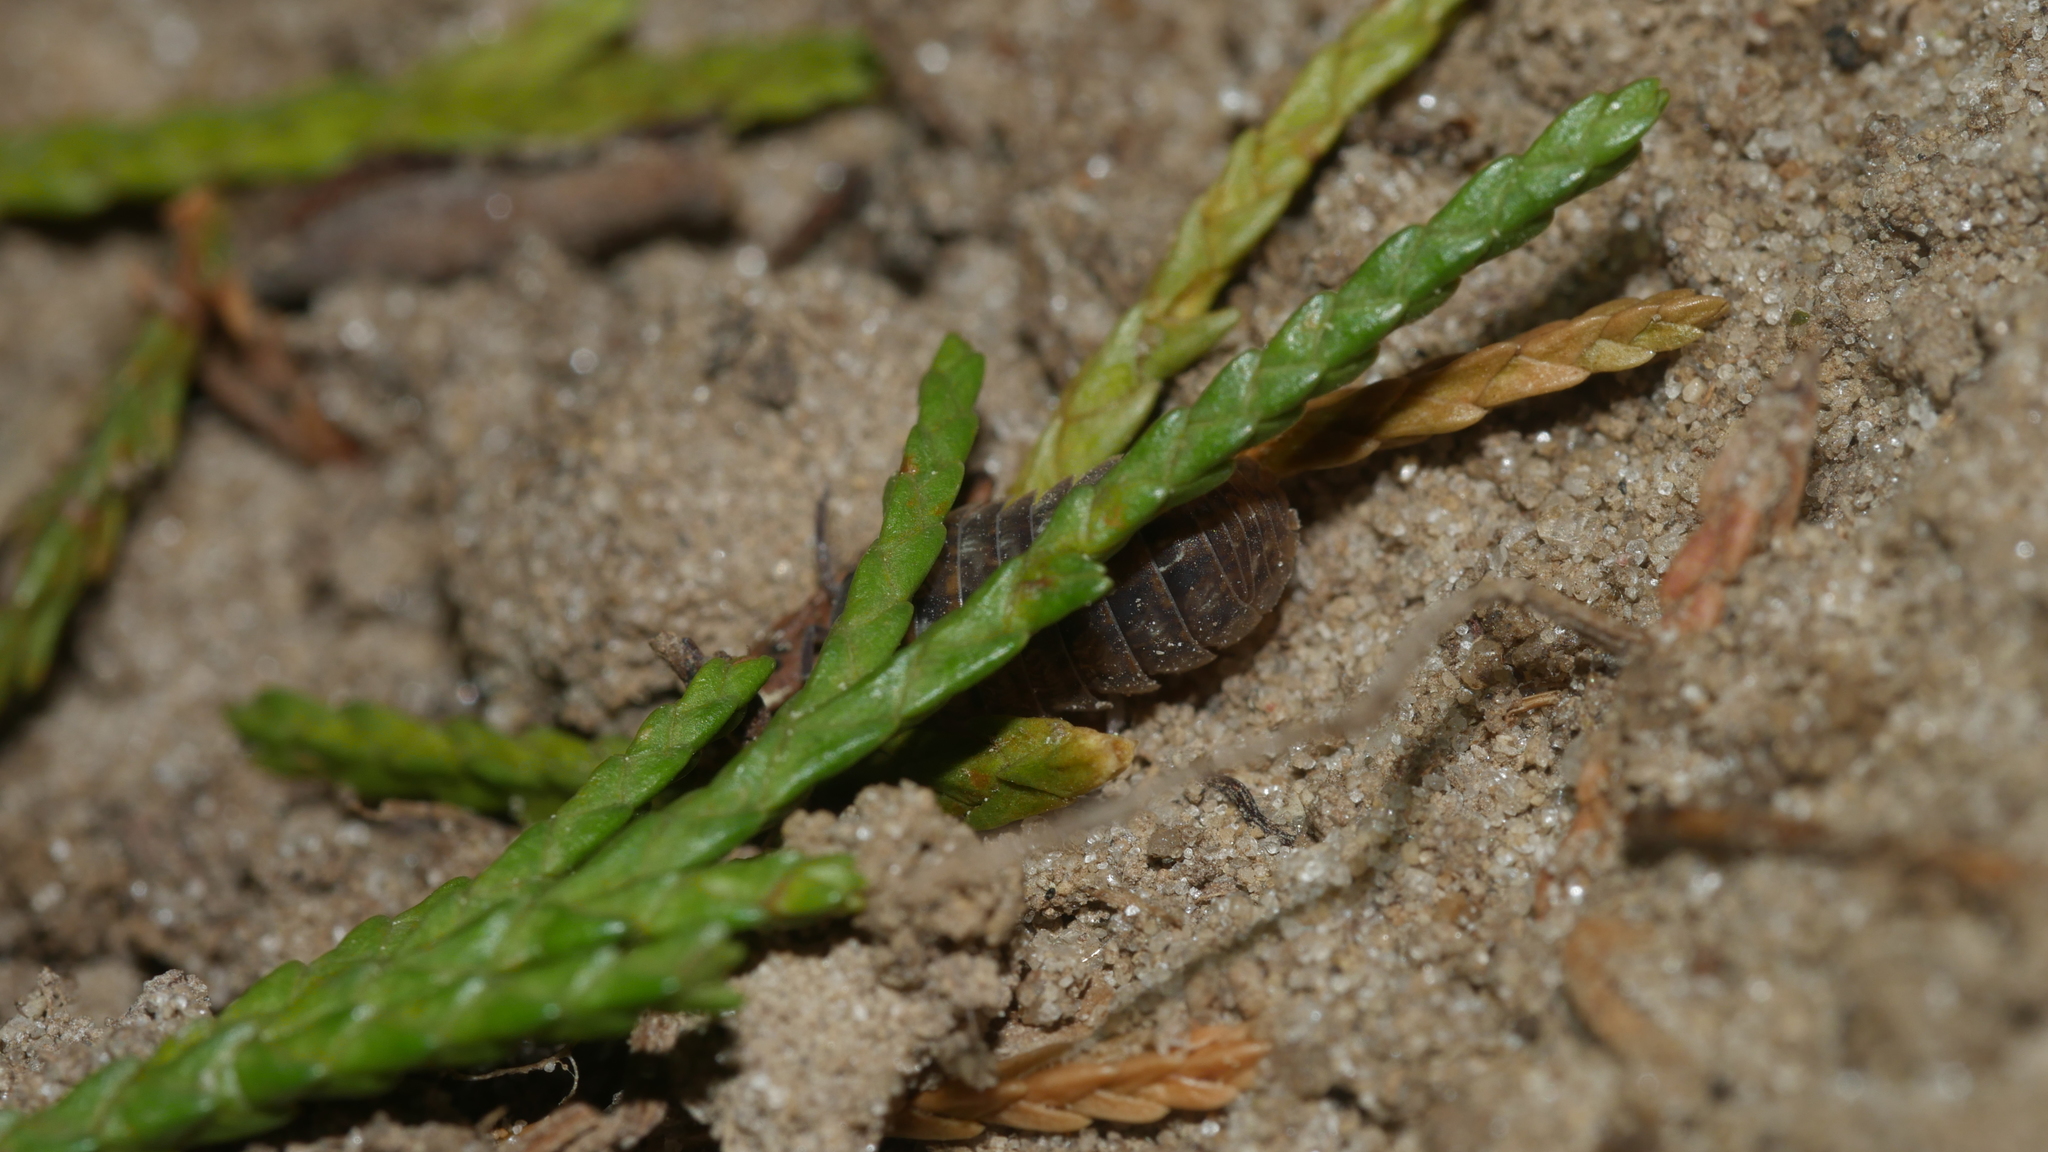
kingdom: Animalia
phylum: Arthropoda
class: Malacostraca
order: Isopoda
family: Armadillidiidae
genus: Armadillidium
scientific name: Armadillidium vulgare
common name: Common pill woodlouse
